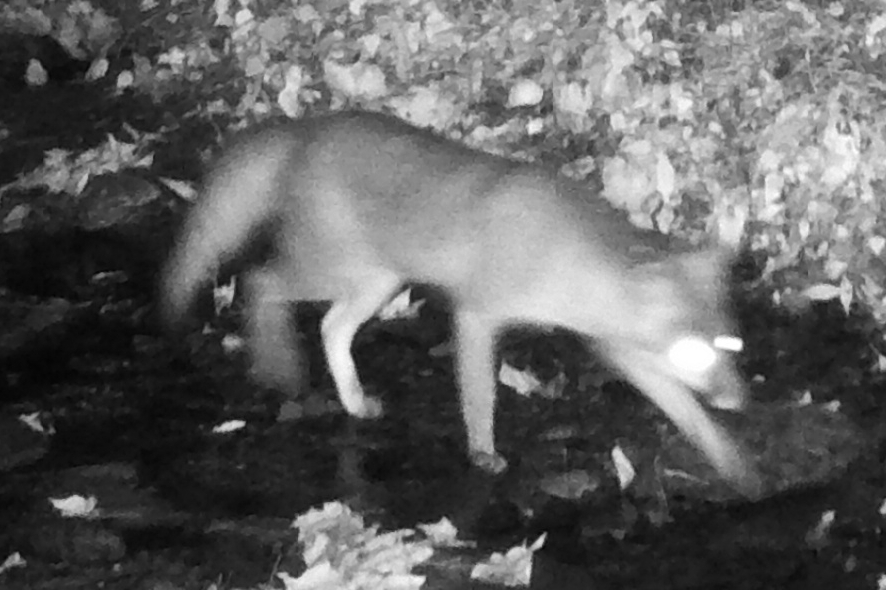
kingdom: Animalia
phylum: Chordata
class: Mammalia
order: Carnivora
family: Canidae
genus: Urocyon
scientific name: Urocyon cinereoargenteus
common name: Gray fox
